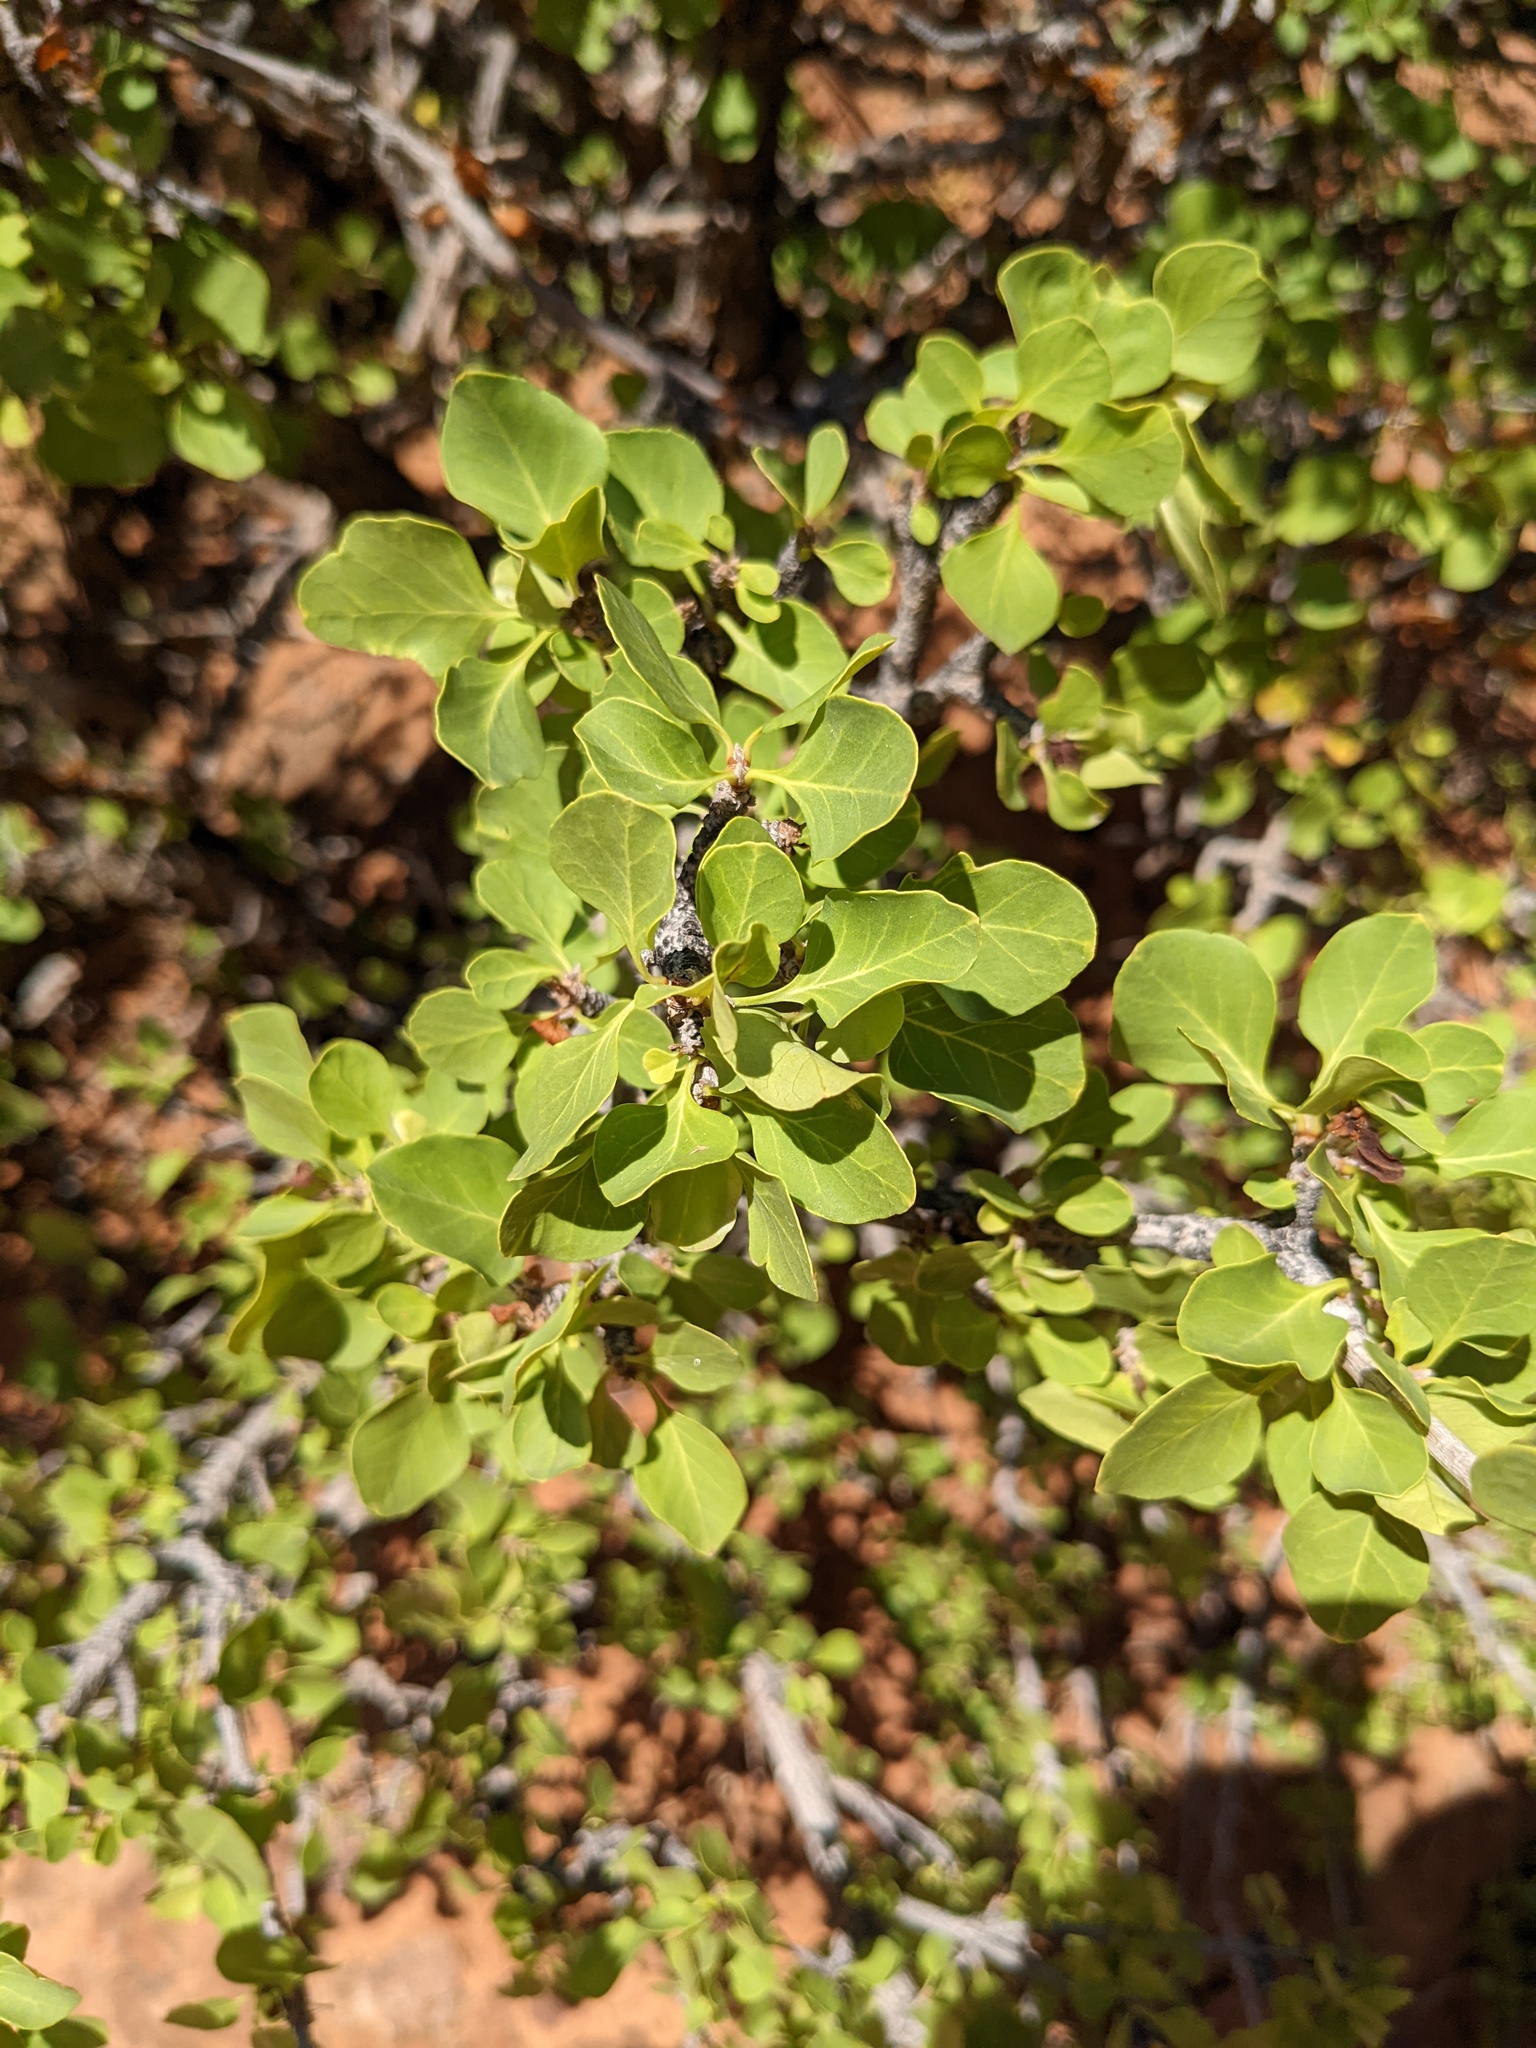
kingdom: Plantae
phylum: Tracheophyta
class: Magnoliopsida
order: Lamiales
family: Oleaceae
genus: Fraxinus
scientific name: Fraxinus anomala
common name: Utah ash
